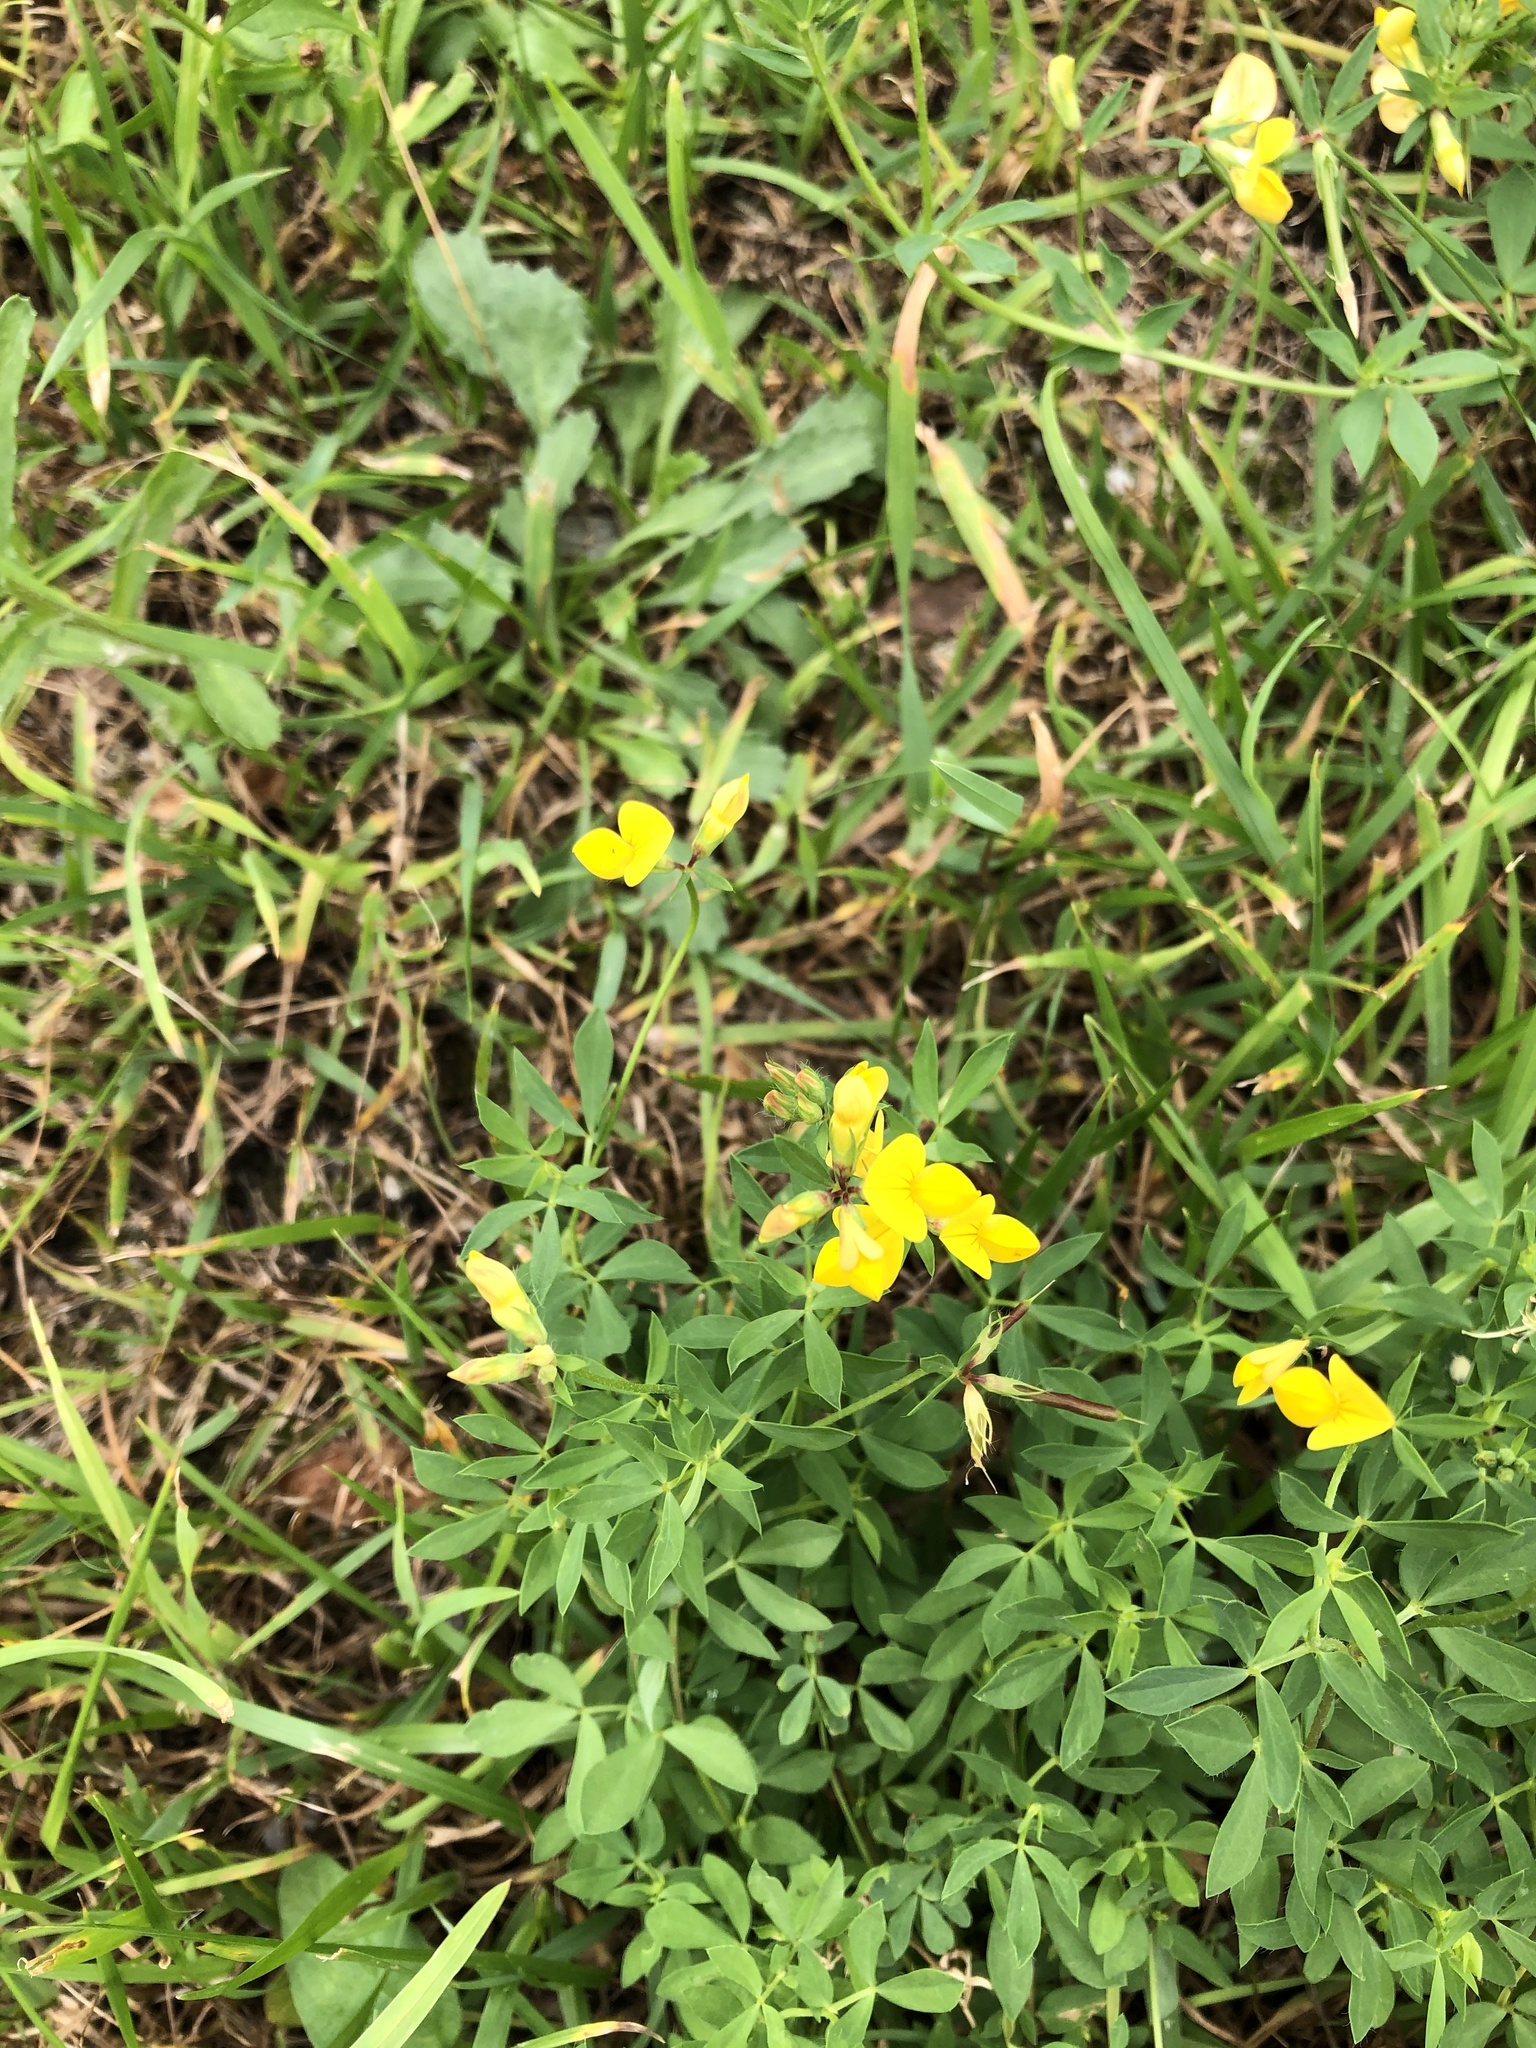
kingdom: Plantae
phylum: Tracheophyta
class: Magnoliopsida
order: Fabales
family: Fabaceae
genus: Lathyrus
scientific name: Lathyrus pratensis
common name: Meadow vetchling
